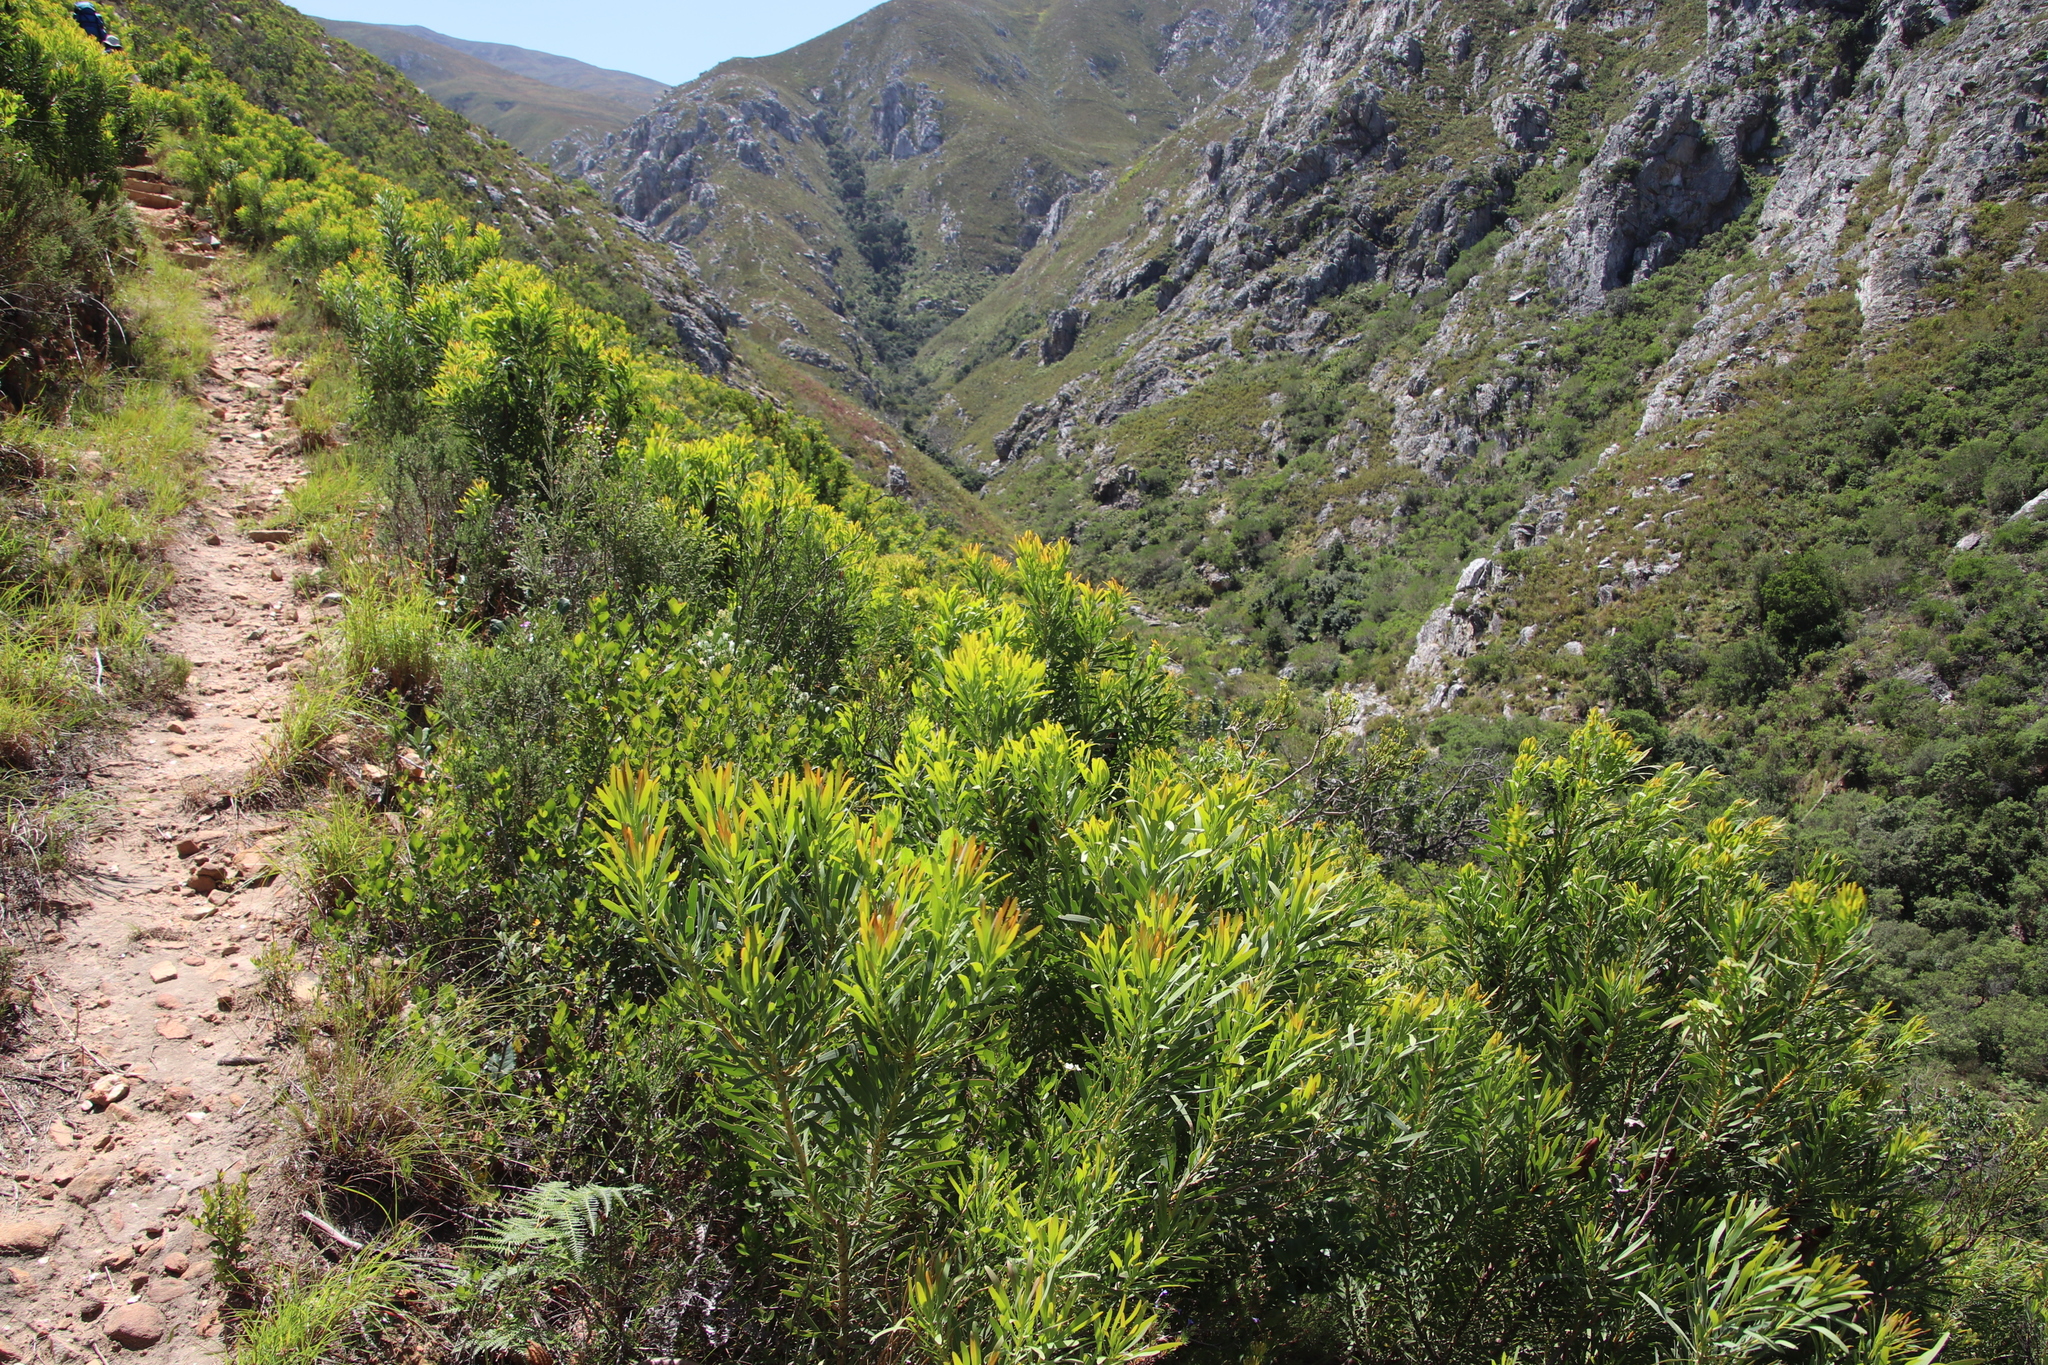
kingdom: Plantae
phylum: Tracheophyta
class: Magnoliopsida
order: Proteales
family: Proteaceae
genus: Protea
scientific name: Protea repens
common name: Sugarbush
